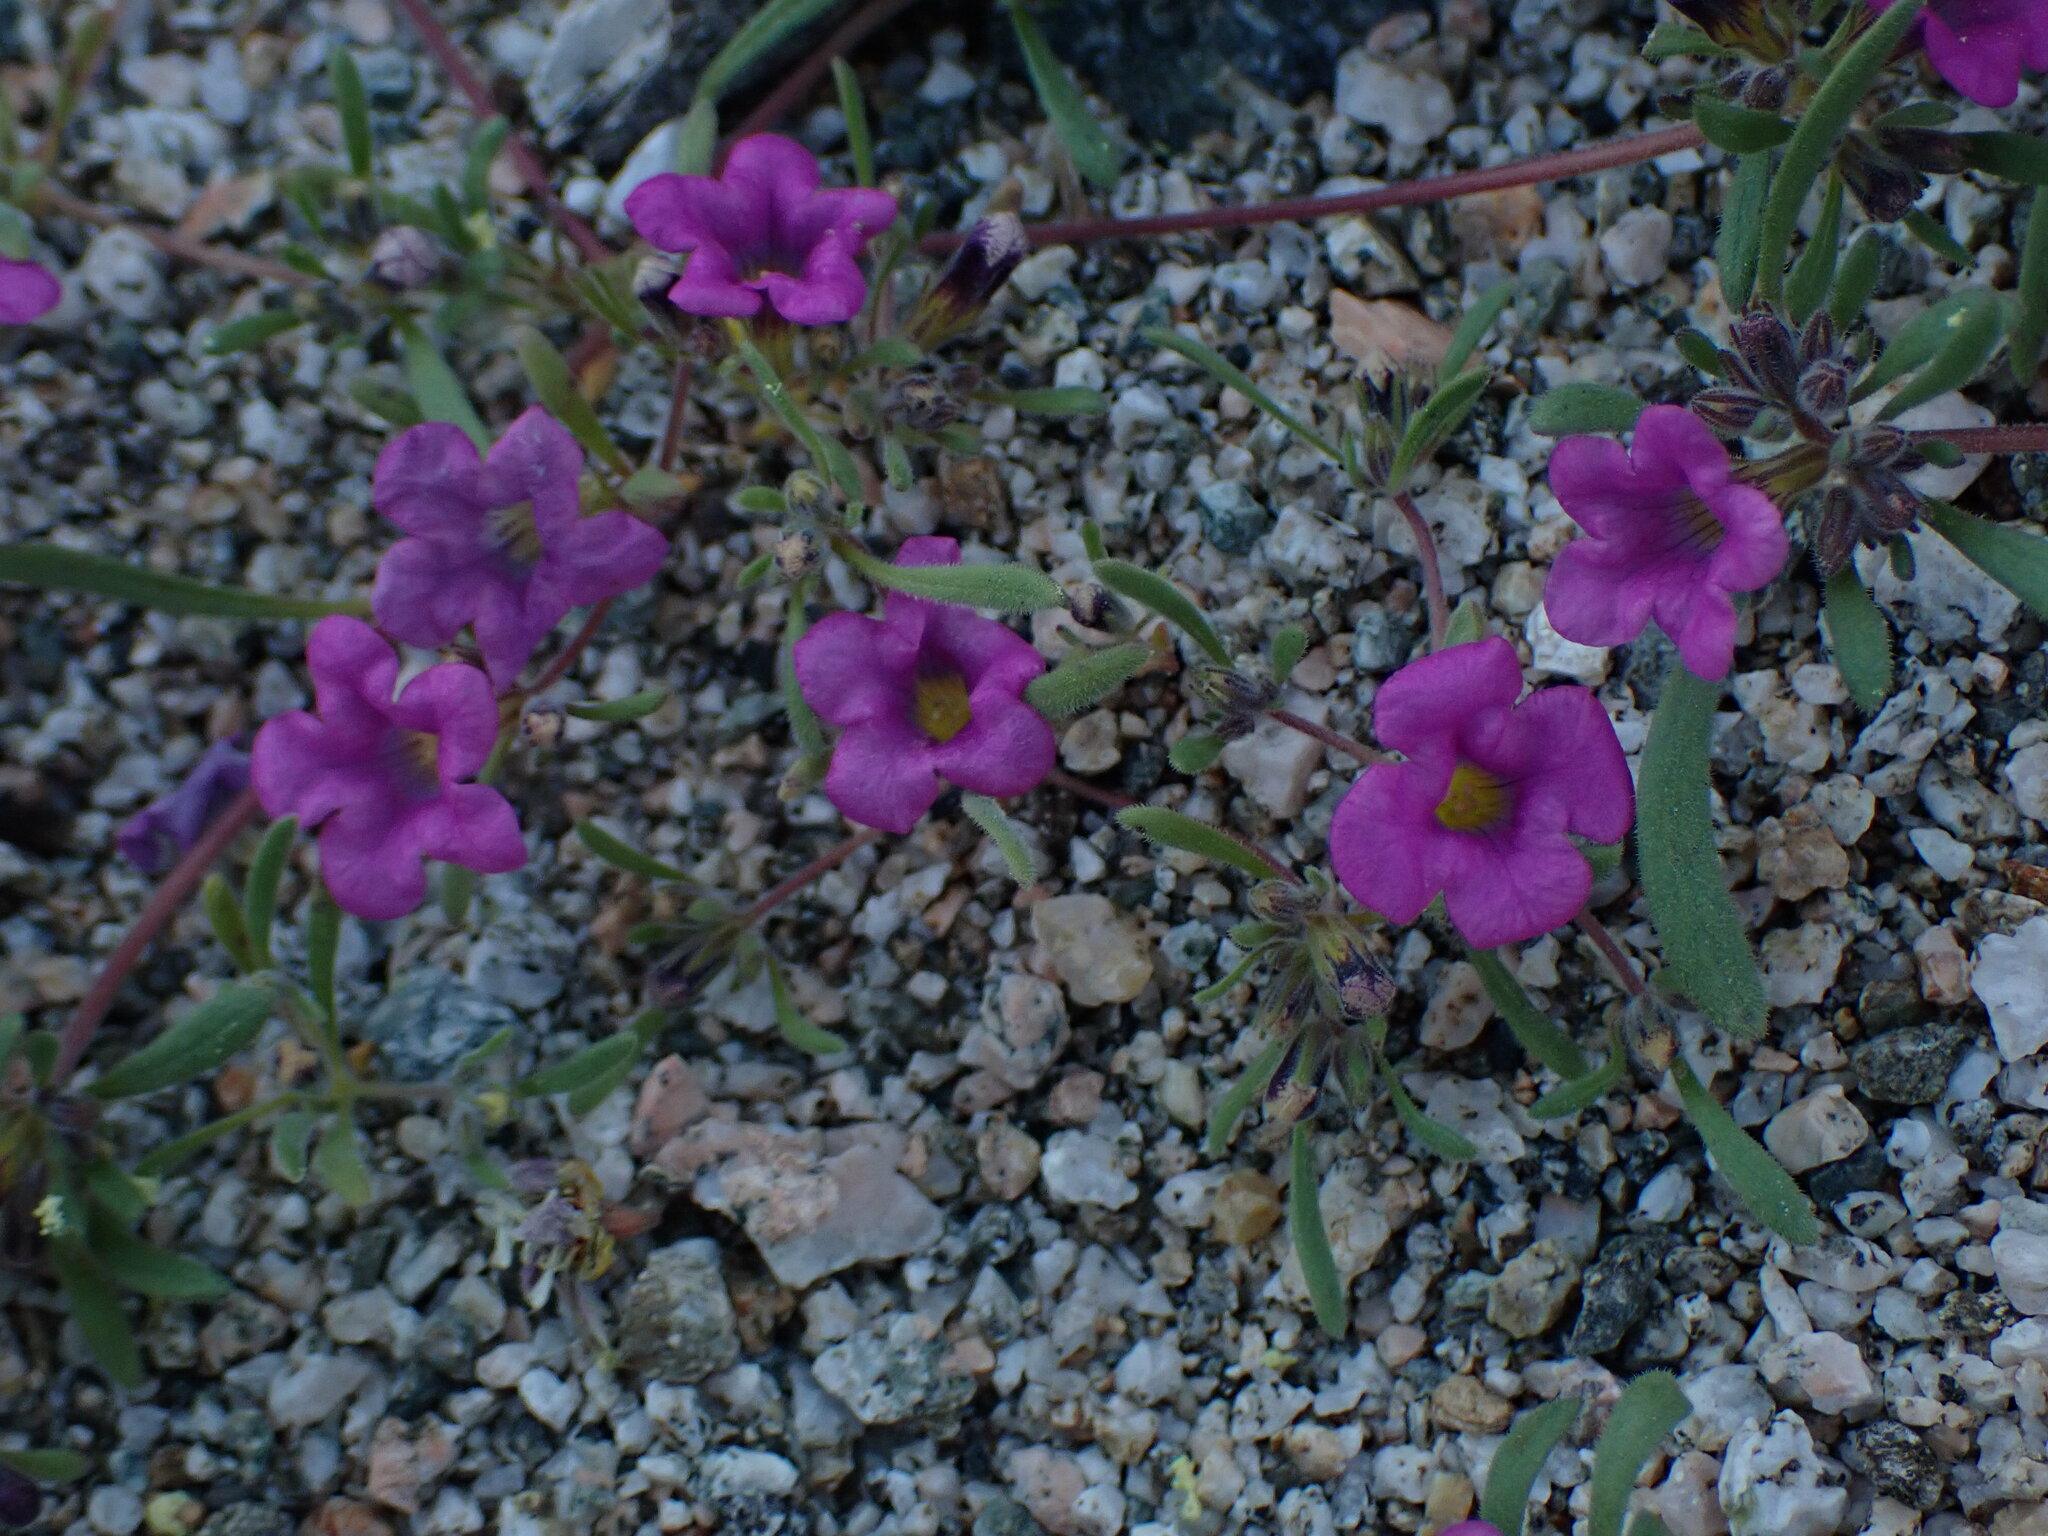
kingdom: Plantae
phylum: Tracheophyta
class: Magnoliopsida
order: Boraginales
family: Namaceae
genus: Nama
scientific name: Nama demissa
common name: Leafy nama
